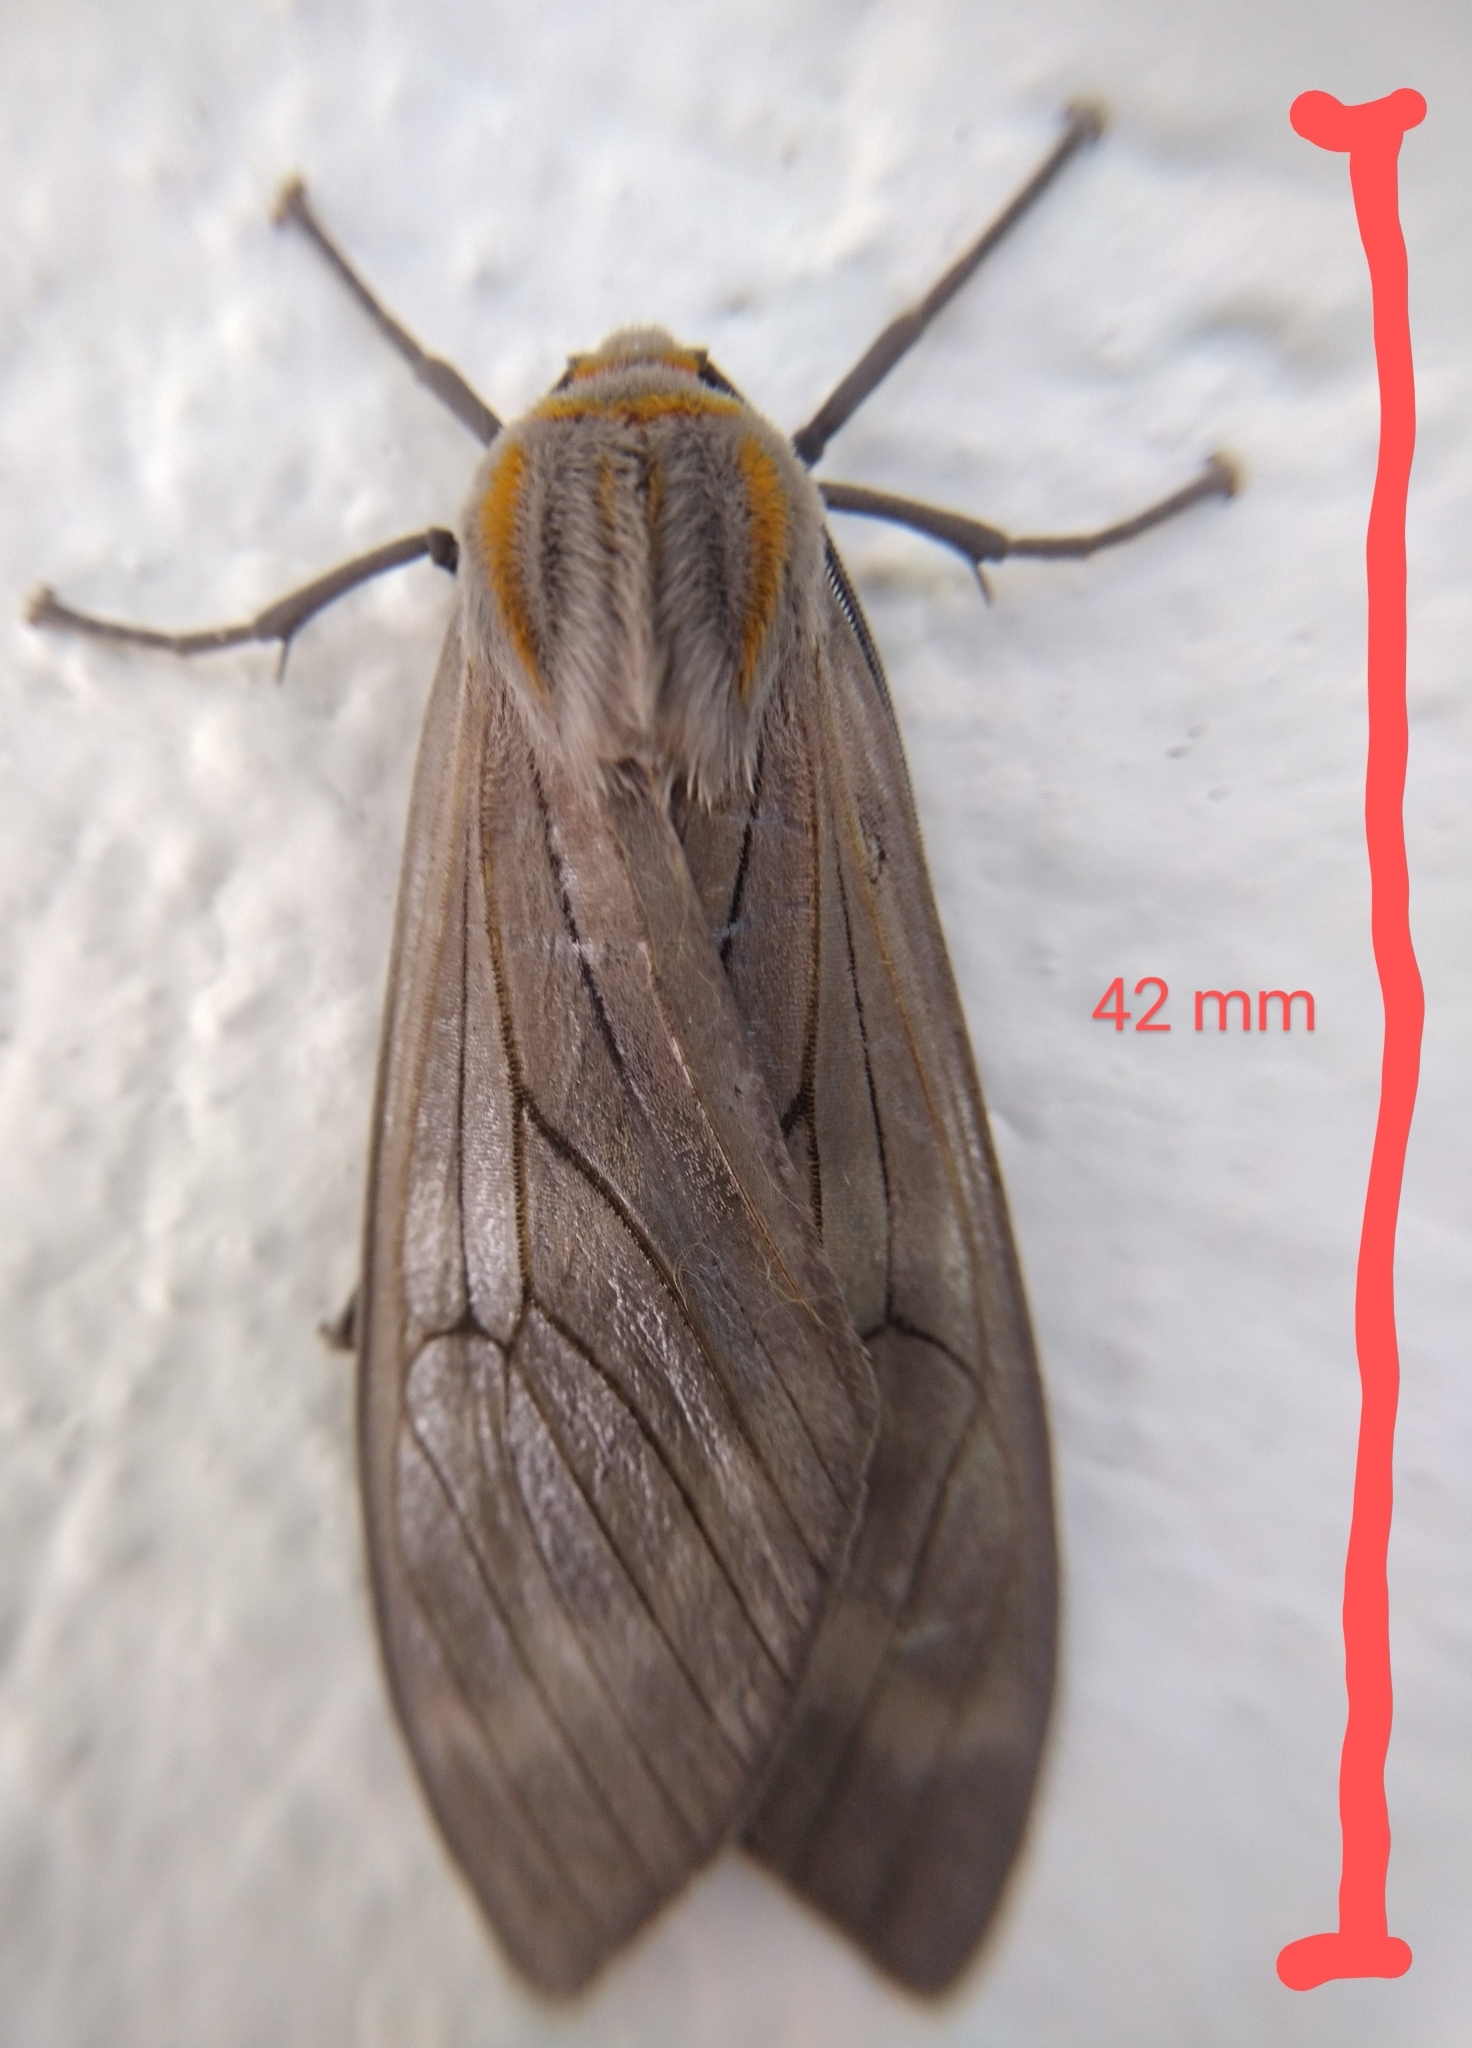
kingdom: Animalia
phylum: Arthropoda
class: Insecta
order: Lepidoptera
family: Erebidae
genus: Amastus
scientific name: Amastus ochraceator
